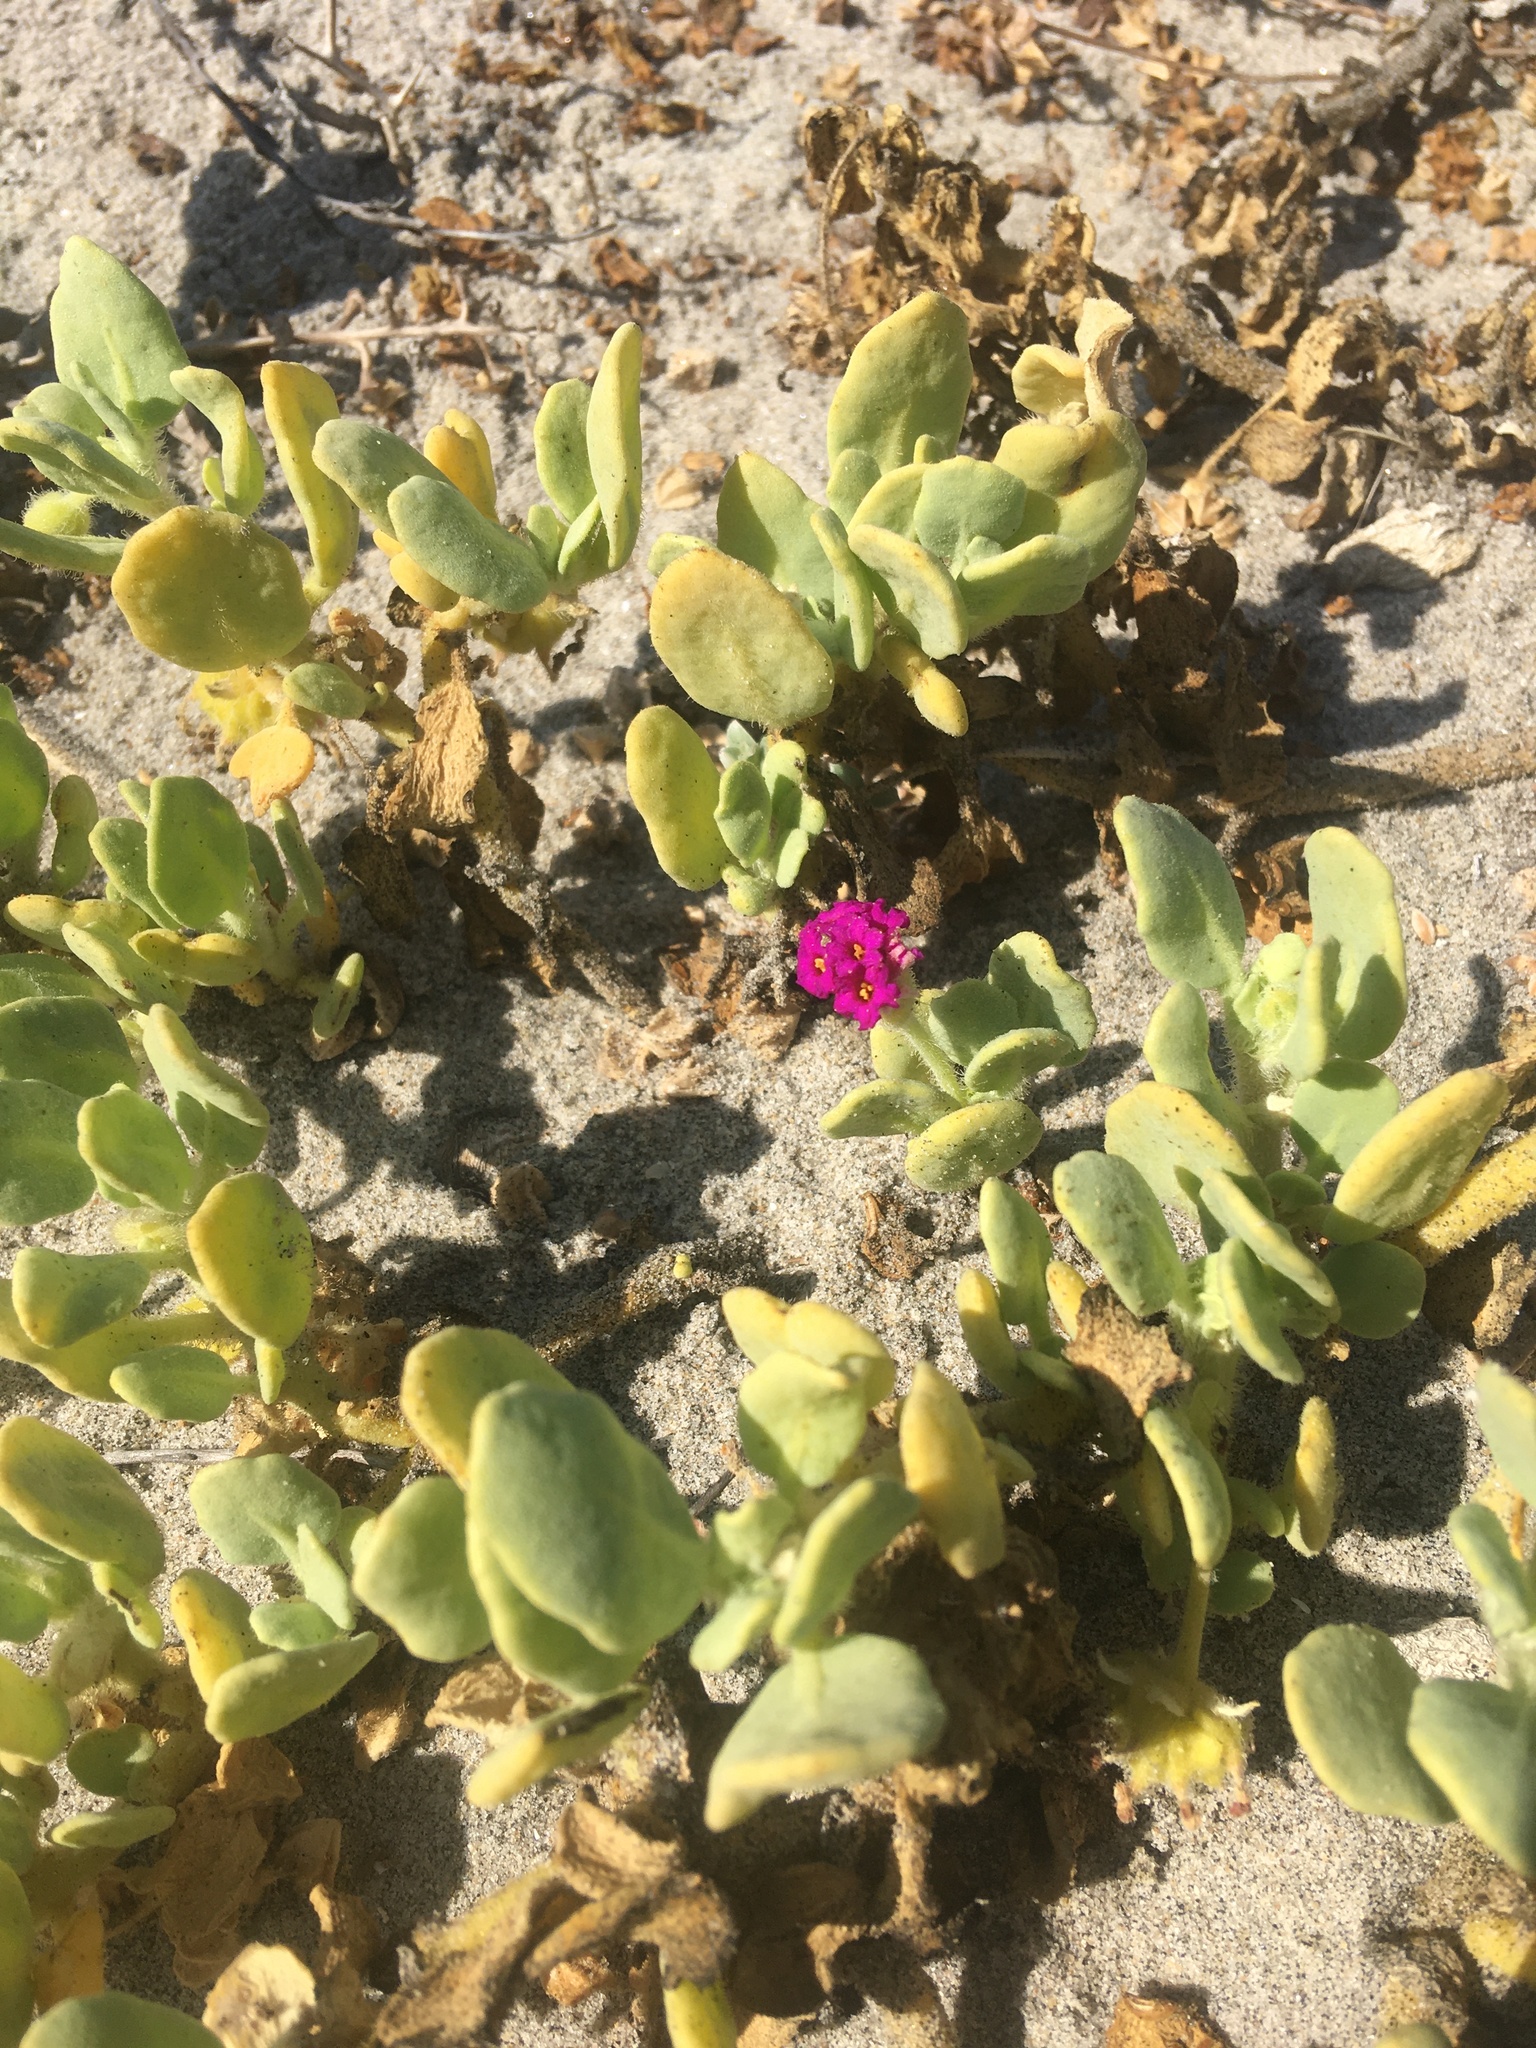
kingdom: Plantae
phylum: Tracheophyta
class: Magnoliopsida
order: Caryophyllales
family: Nyctaginaceae
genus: Abronia
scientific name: Abronia maritima
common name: Red sand-verbena
